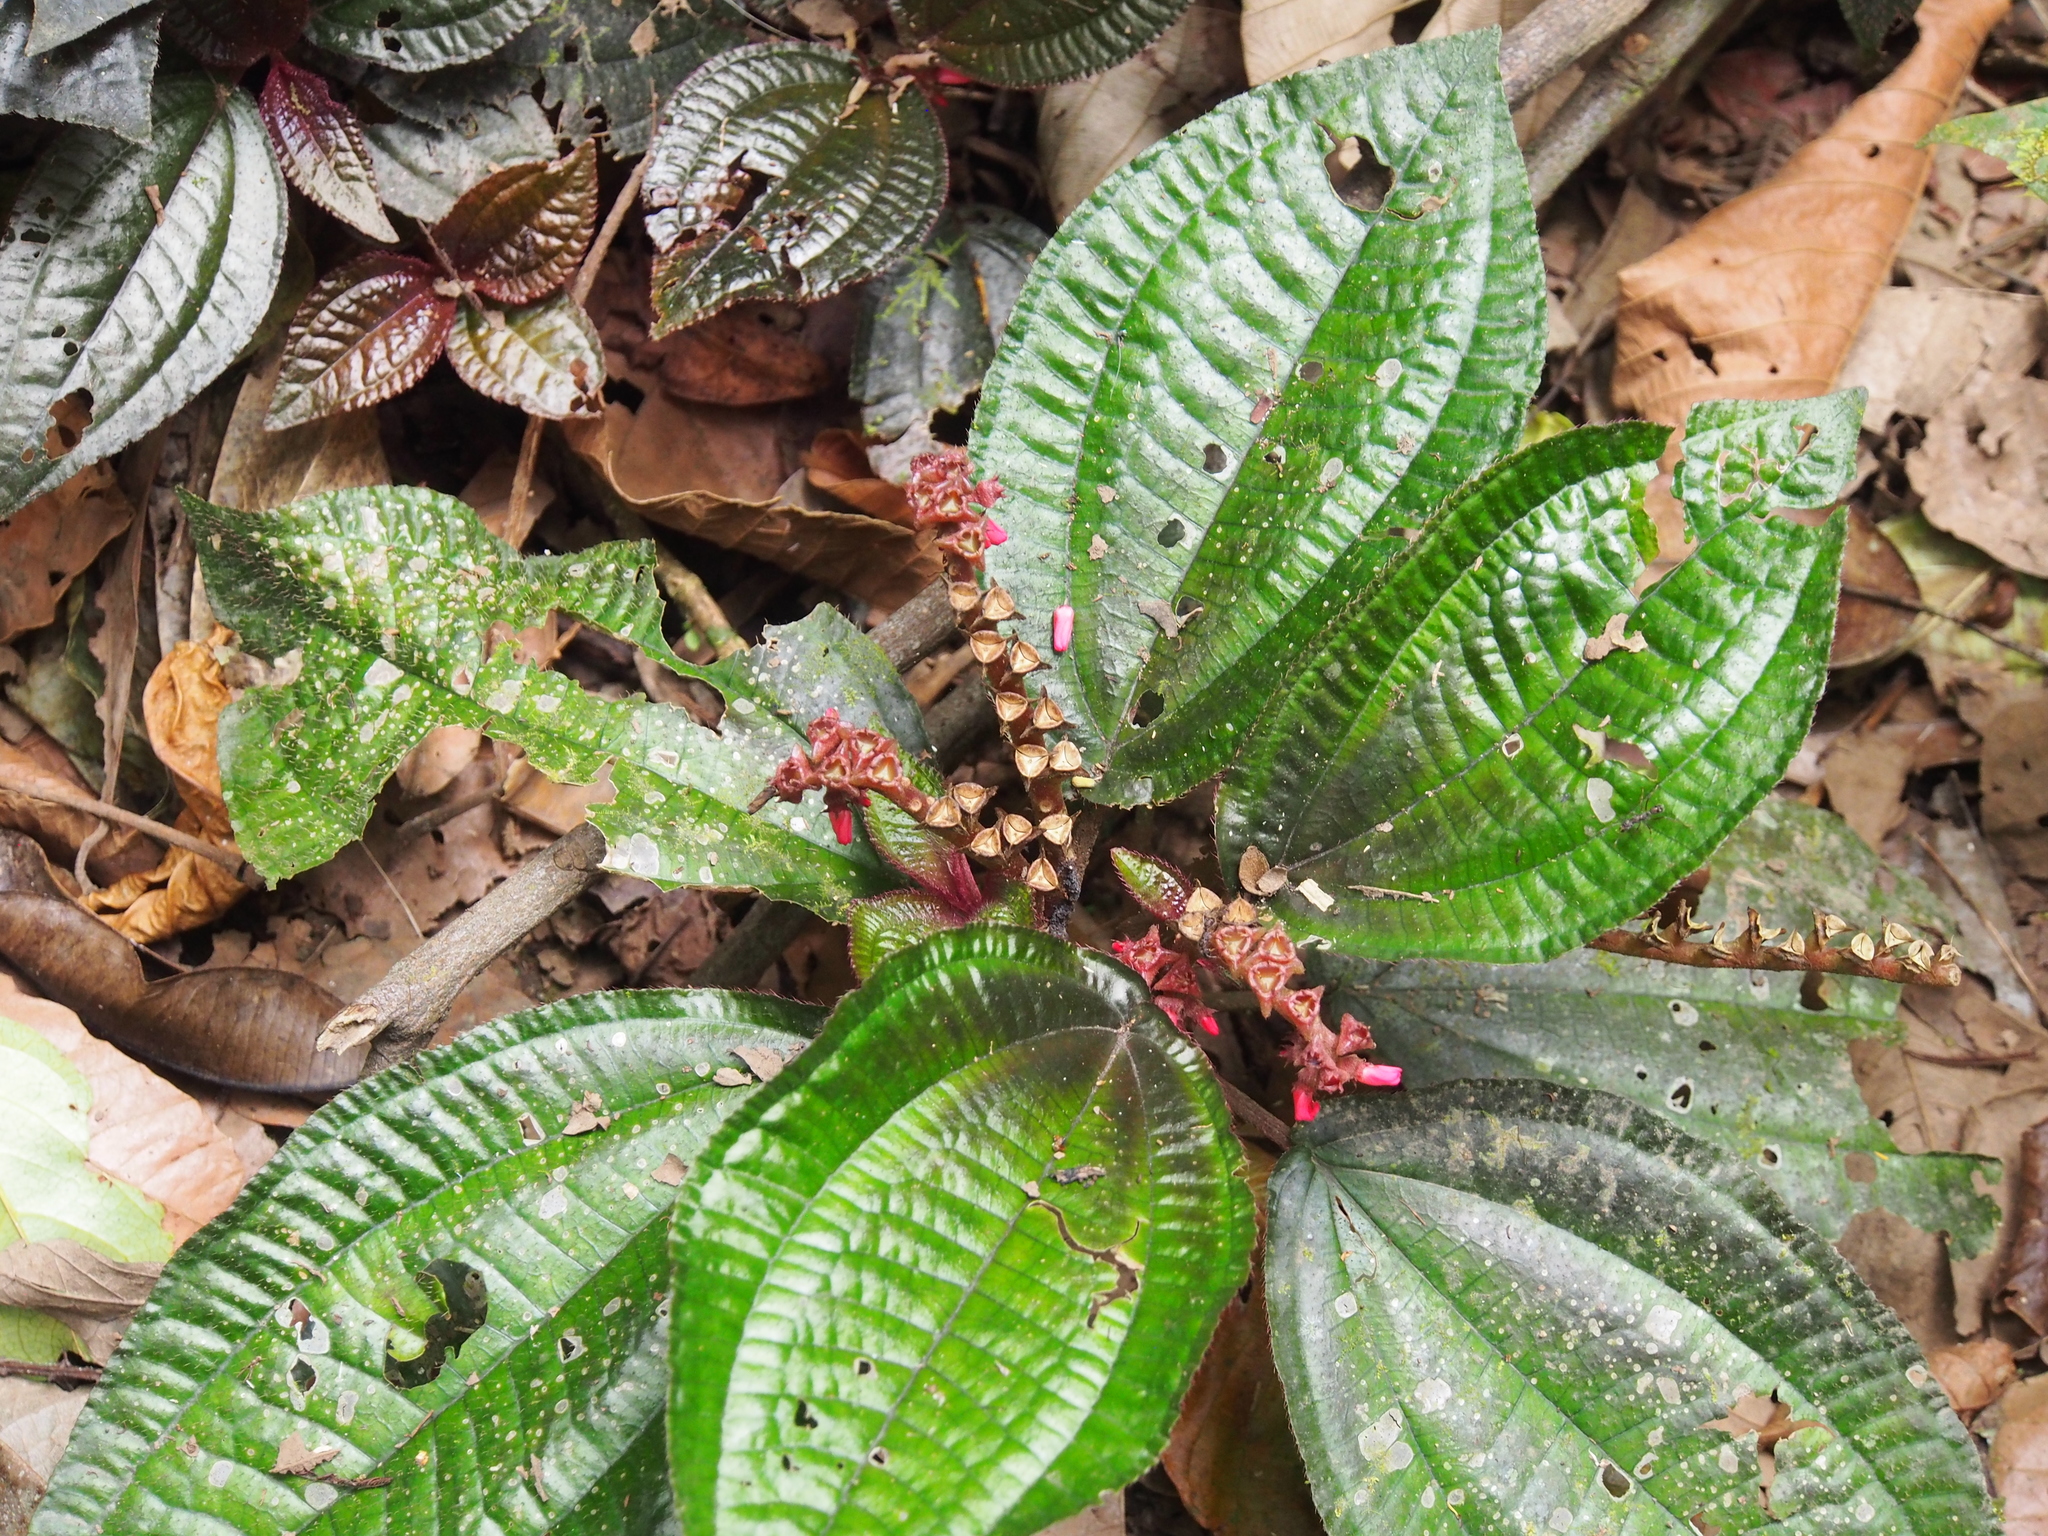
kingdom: Plantae
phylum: Tracheophyta
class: Magnoliopsida
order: Myrtales
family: Melastomataceae
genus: Triolena
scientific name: Triolena hirsuta
